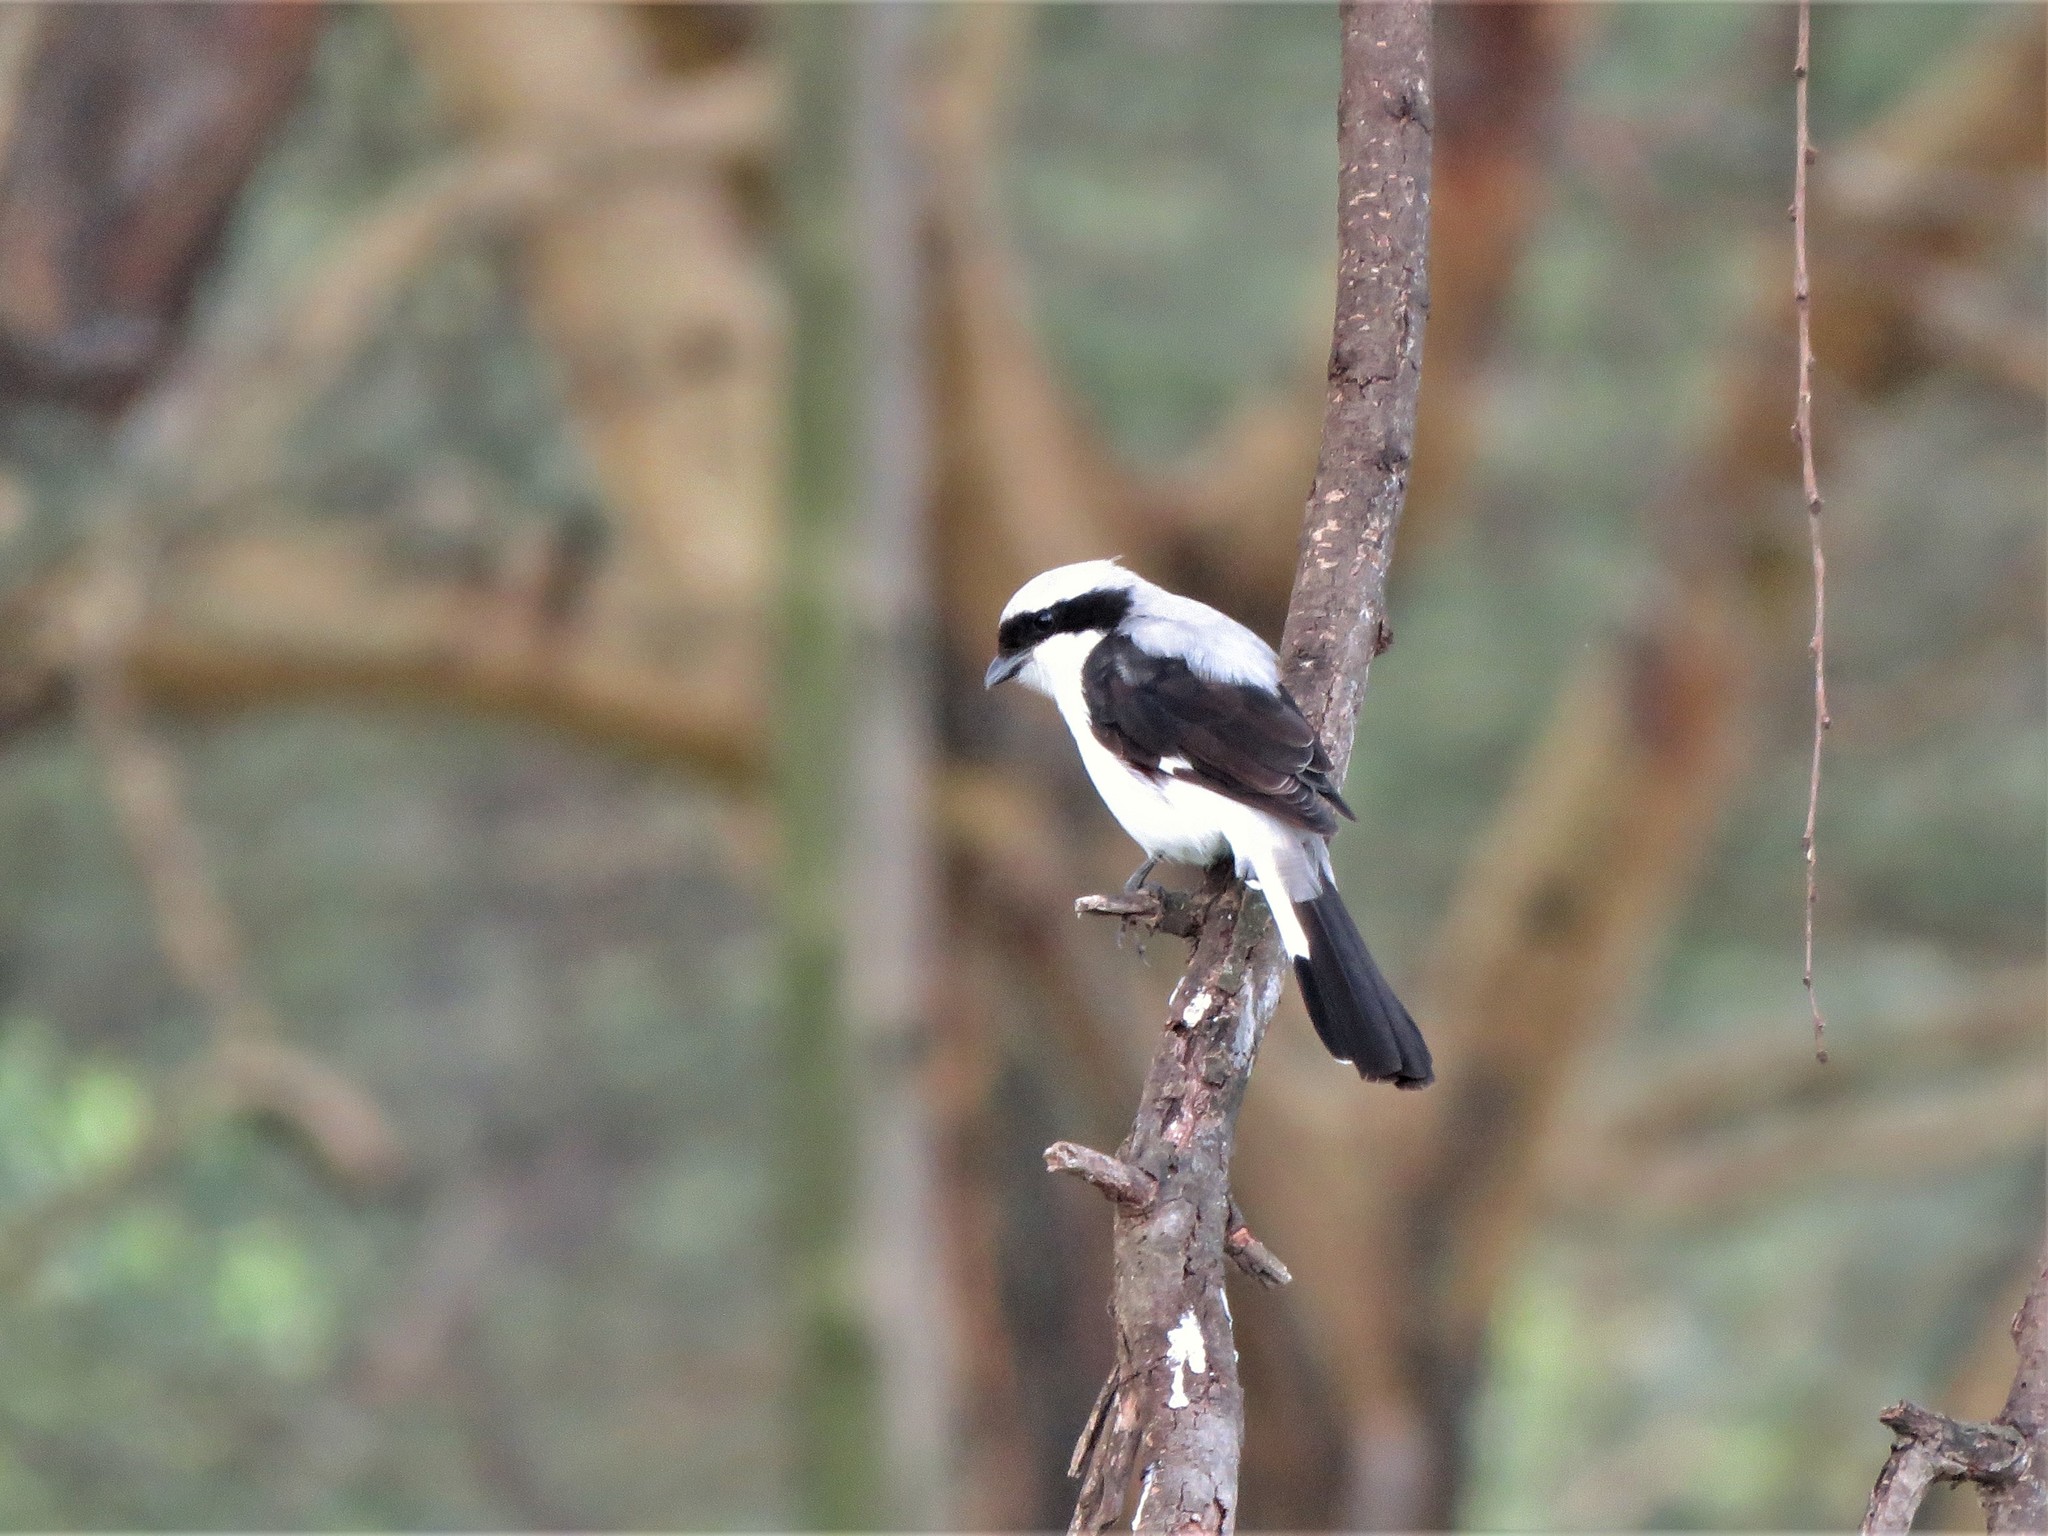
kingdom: Animalia
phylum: Chordata
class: Aves
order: Passeriformes
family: Laniidae
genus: Lanius
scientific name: Lanius excubitoroides
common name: Grey-backed fiscal
